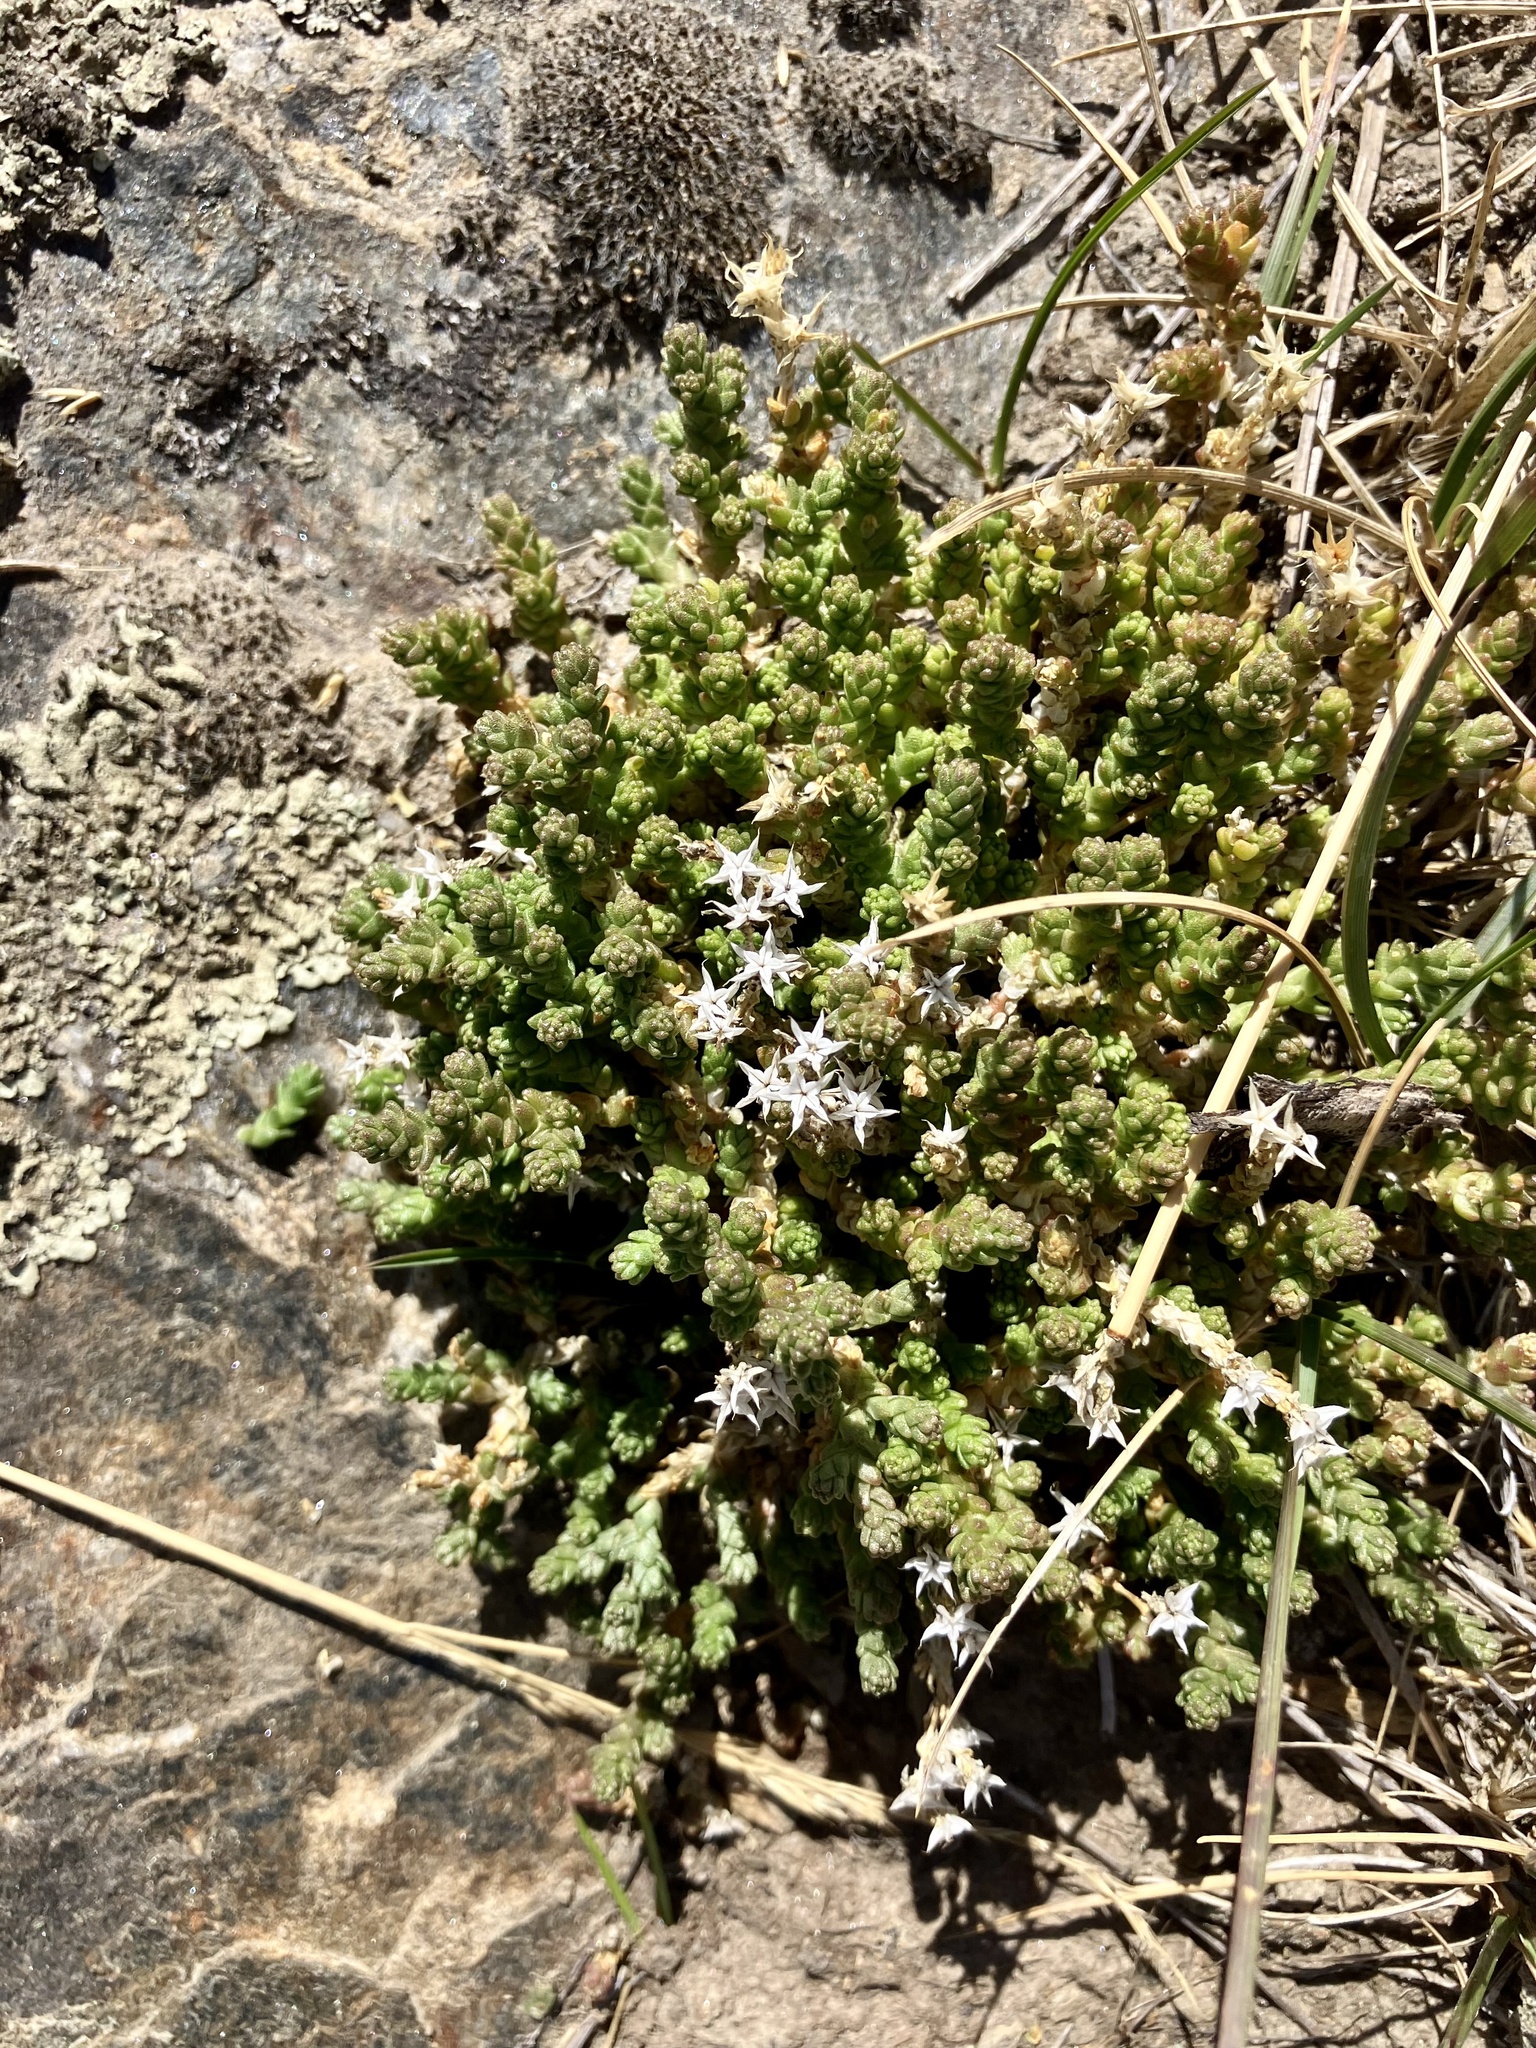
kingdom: Plantae
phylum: Tracheophyta
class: Magnoliopsida
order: Saxifragales
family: Crassulaceae
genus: Sedum
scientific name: Sedum acre
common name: Biting stonecrop
